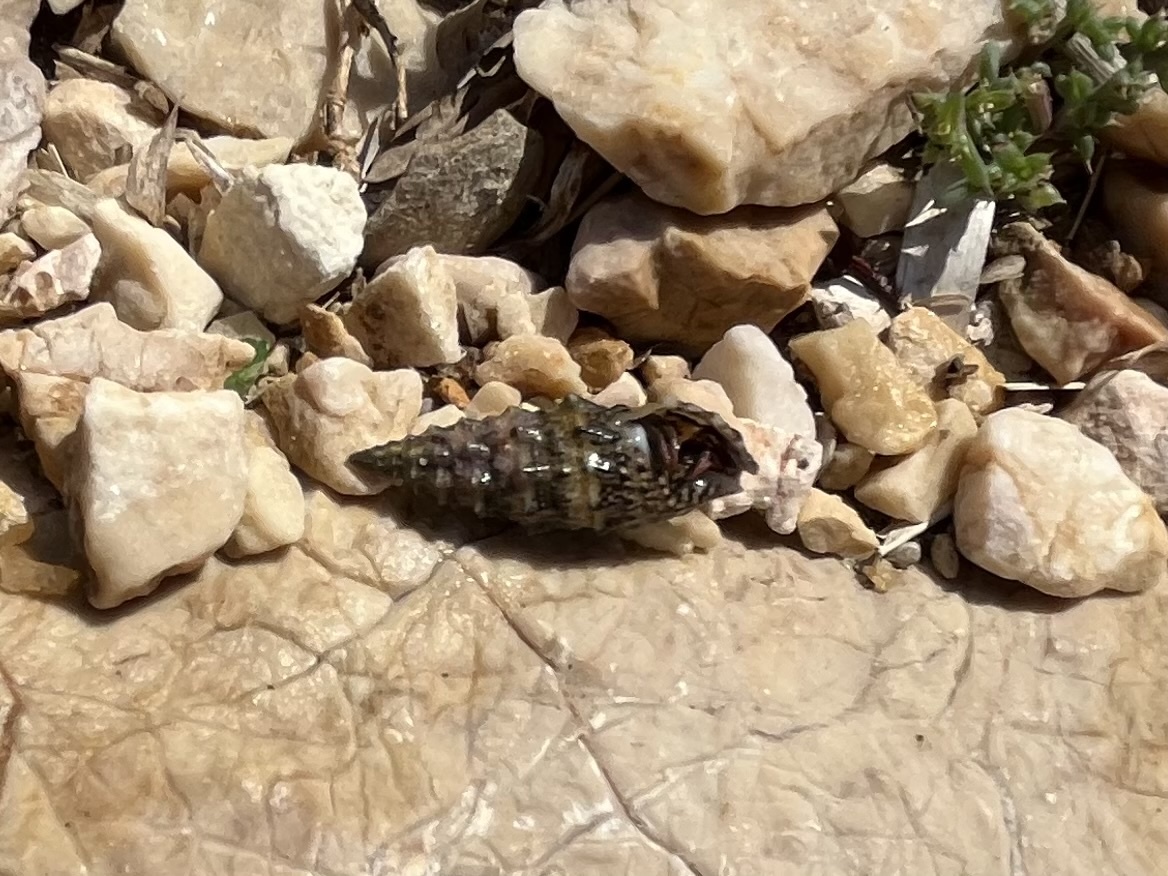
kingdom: Animalia
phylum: Mollusca
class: Gastropoda
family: Cerithiidae
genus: Cerithium
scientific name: Cerithium vulgatum
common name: European cerith
